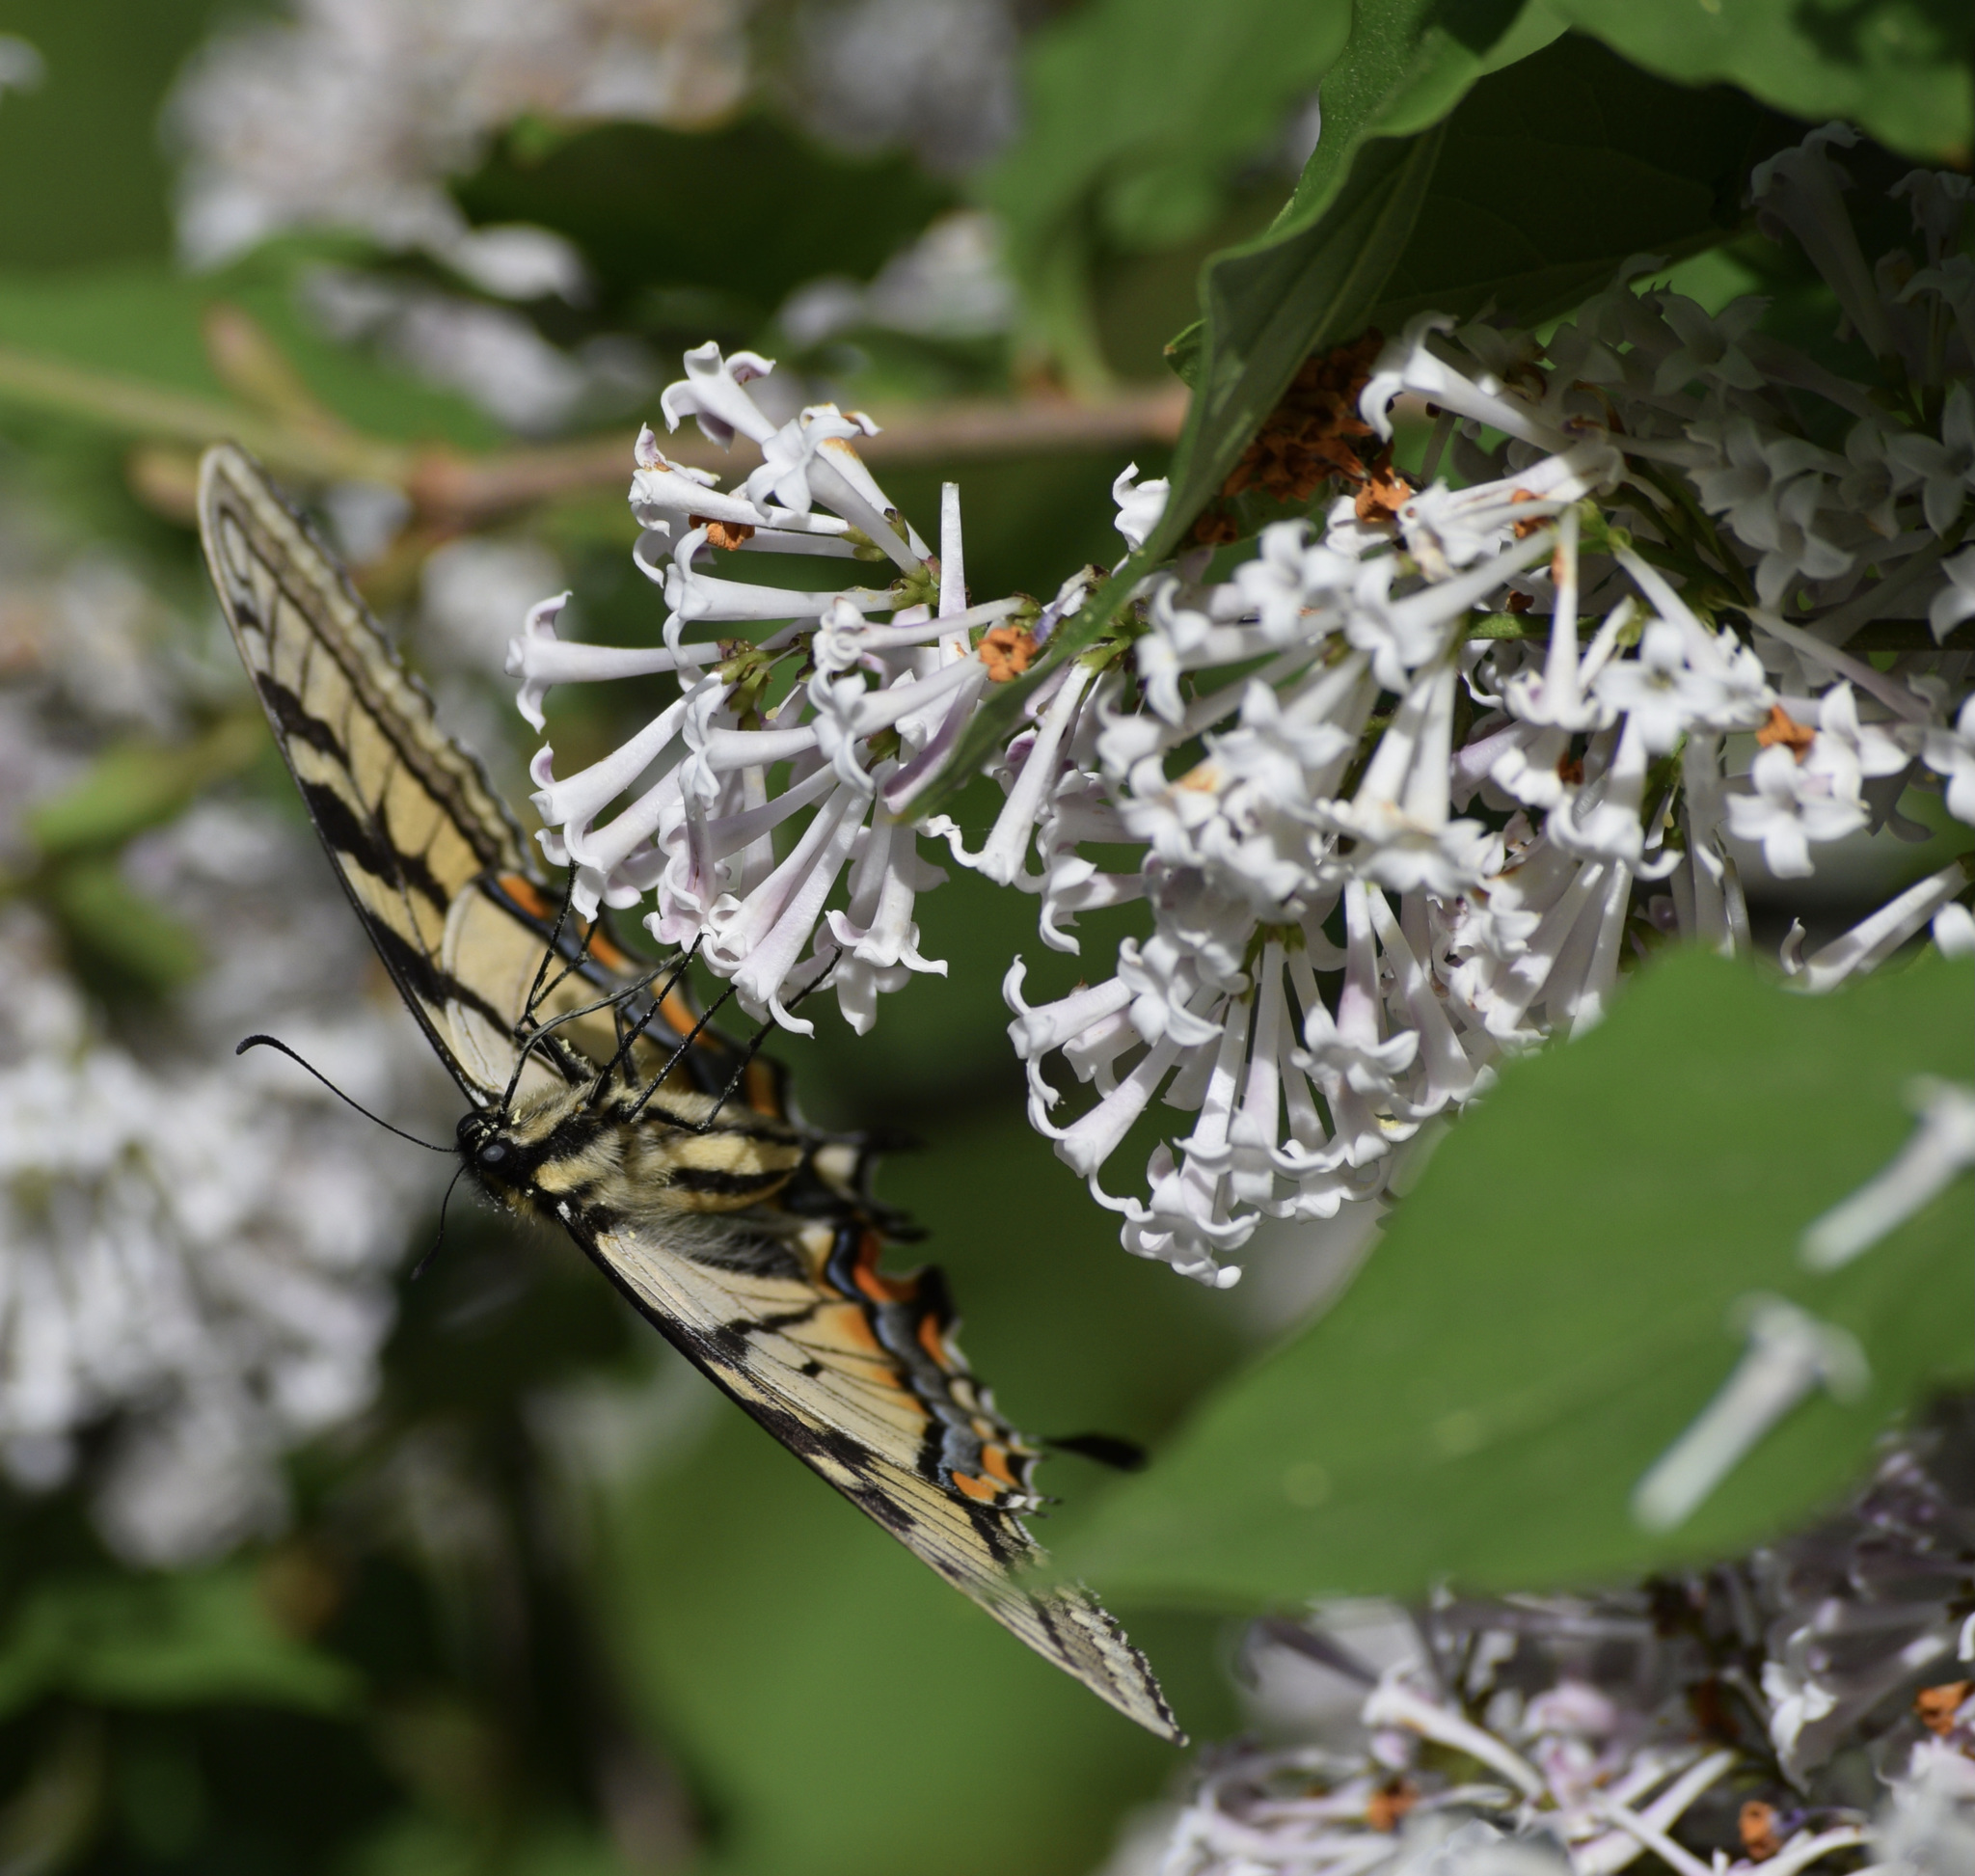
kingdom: Animalia
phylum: Arthropoda
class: Insecta
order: Lepidoptera
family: Papilionidae
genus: Papilio
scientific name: Papilio canadensis
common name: Canadian tiger swallowtail
